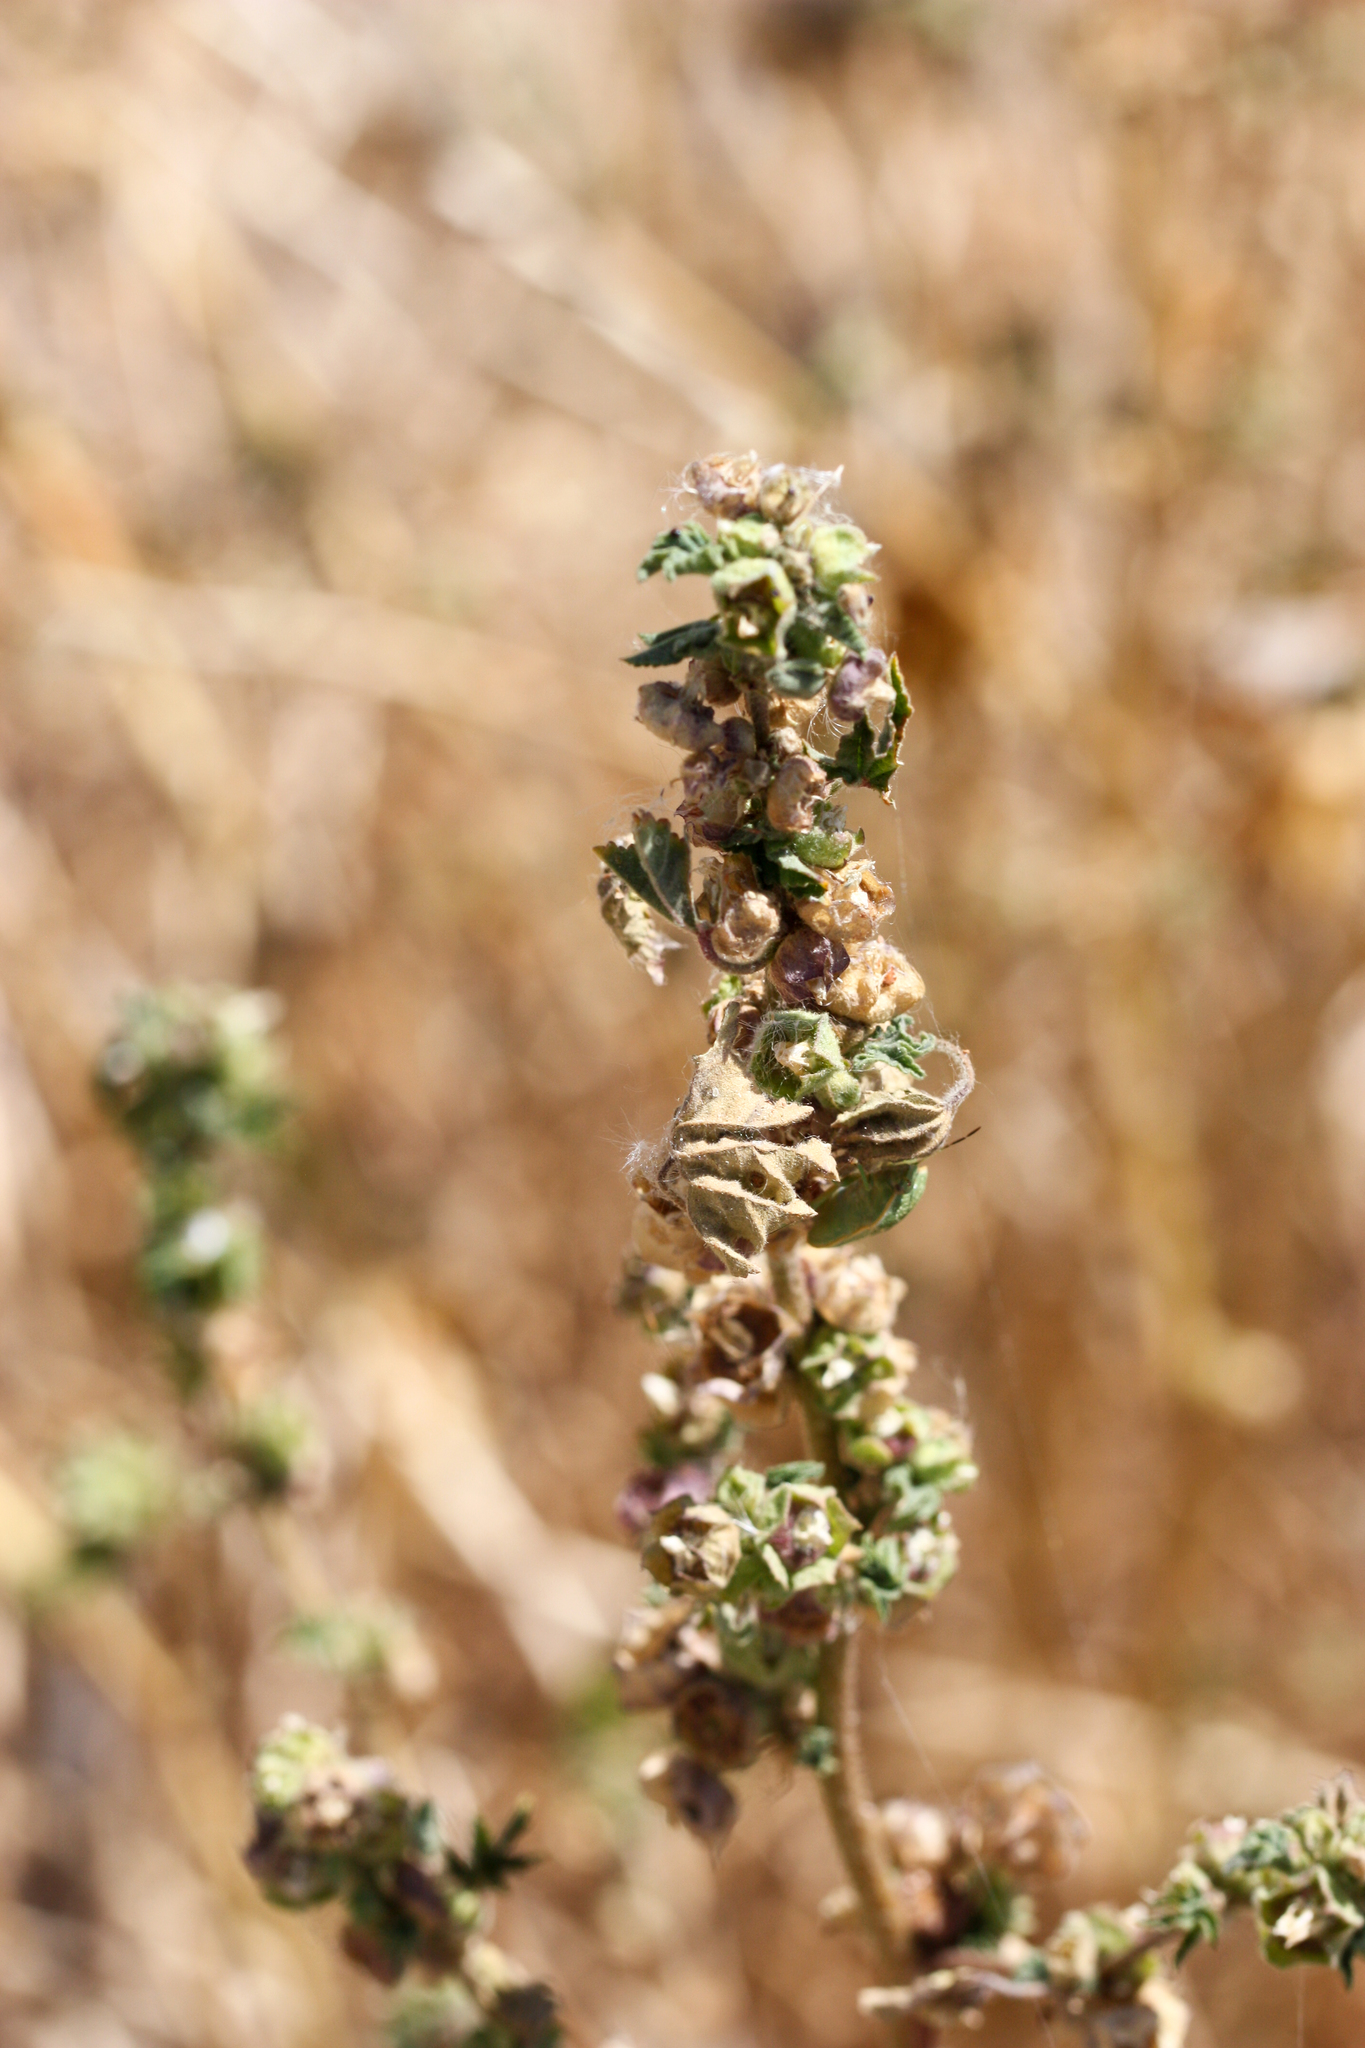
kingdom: Plantae
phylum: Tracheophyta
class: Magnoliopsida
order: Malvales
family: Malvaceae
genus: Malva
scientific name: Malva parviflora
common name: Least mallow
